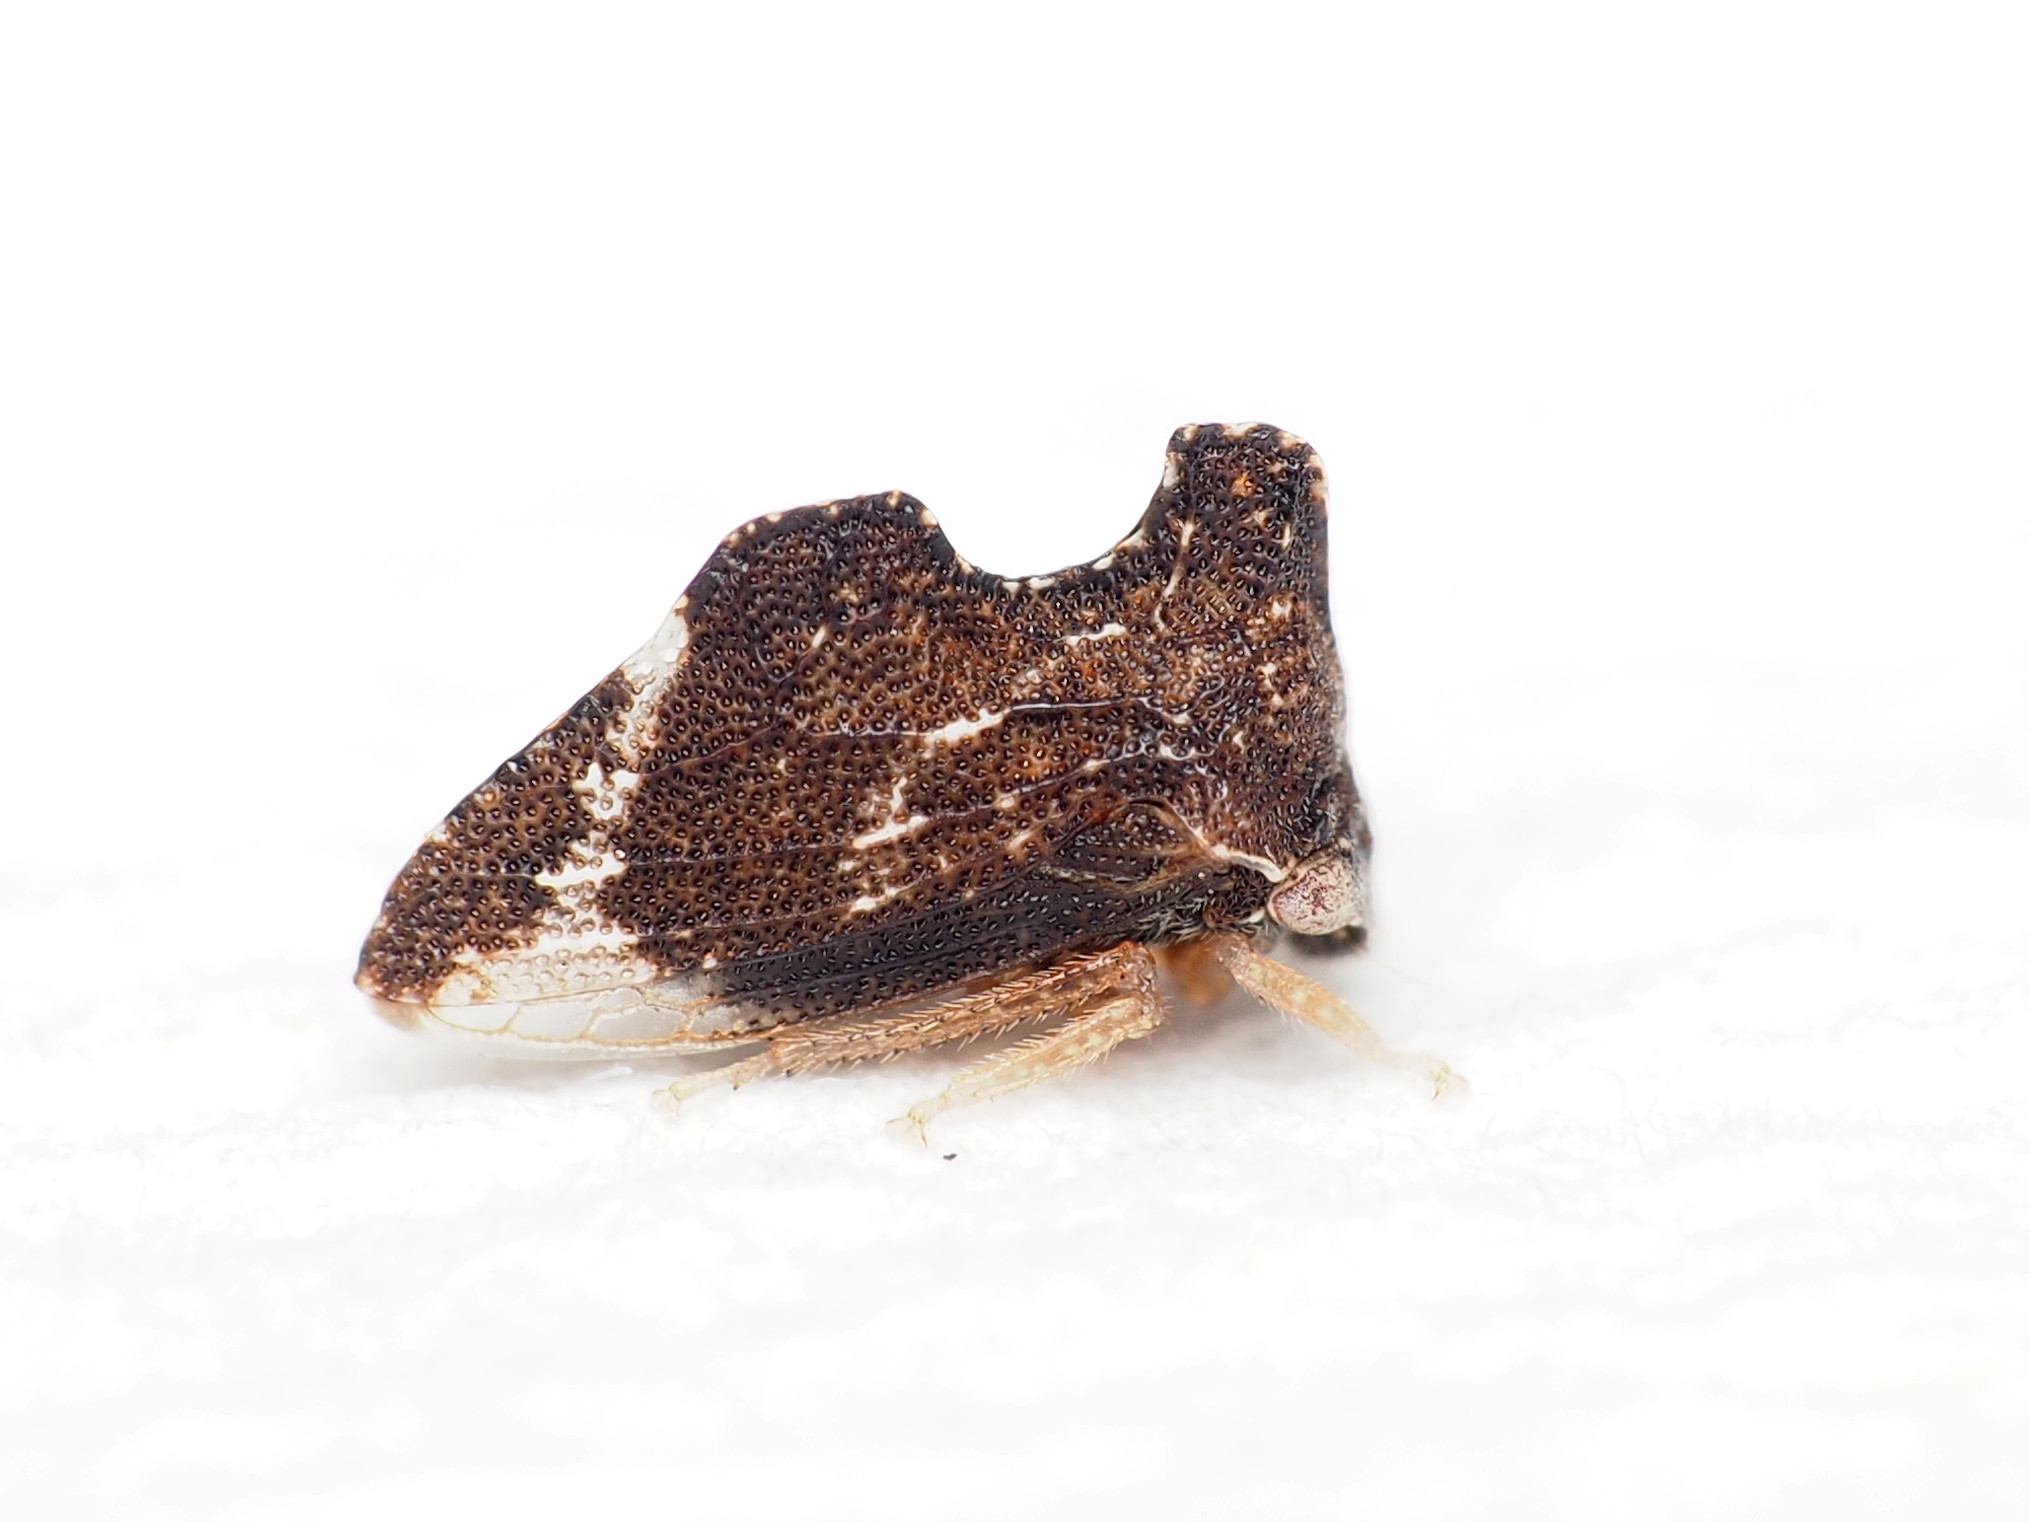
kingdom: Animalia
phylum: Arthropoda
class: Insecta
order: Hemiptera
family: Membracidae
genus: Entylia
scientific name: Entylia carinata
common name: Keeled treehopper
